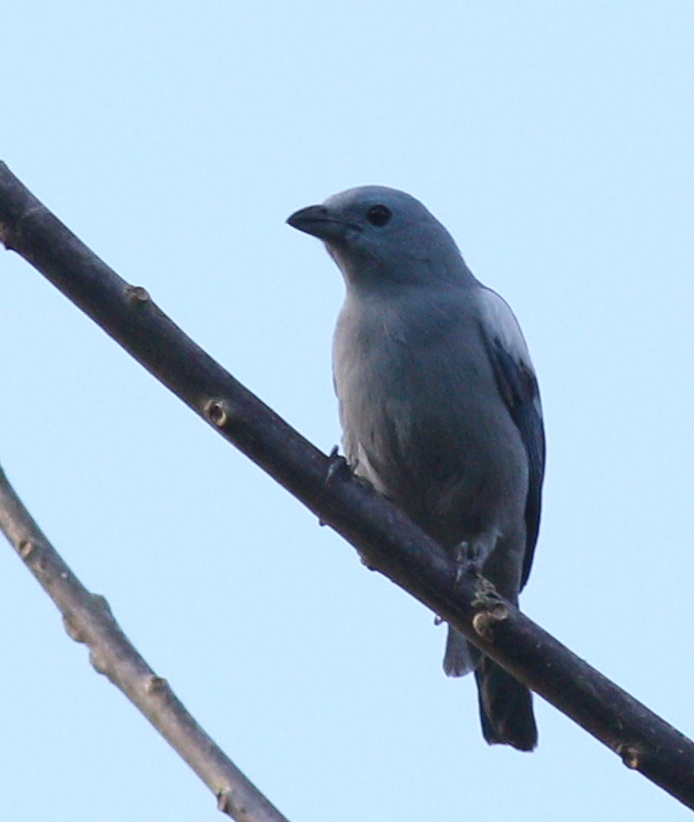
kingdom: Animalia
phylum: Chordata
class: Aves
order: Passeriformes
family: Thraupidae
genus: Thraupis
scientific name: Thraupis episcopus
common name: Blue-grey tanager
